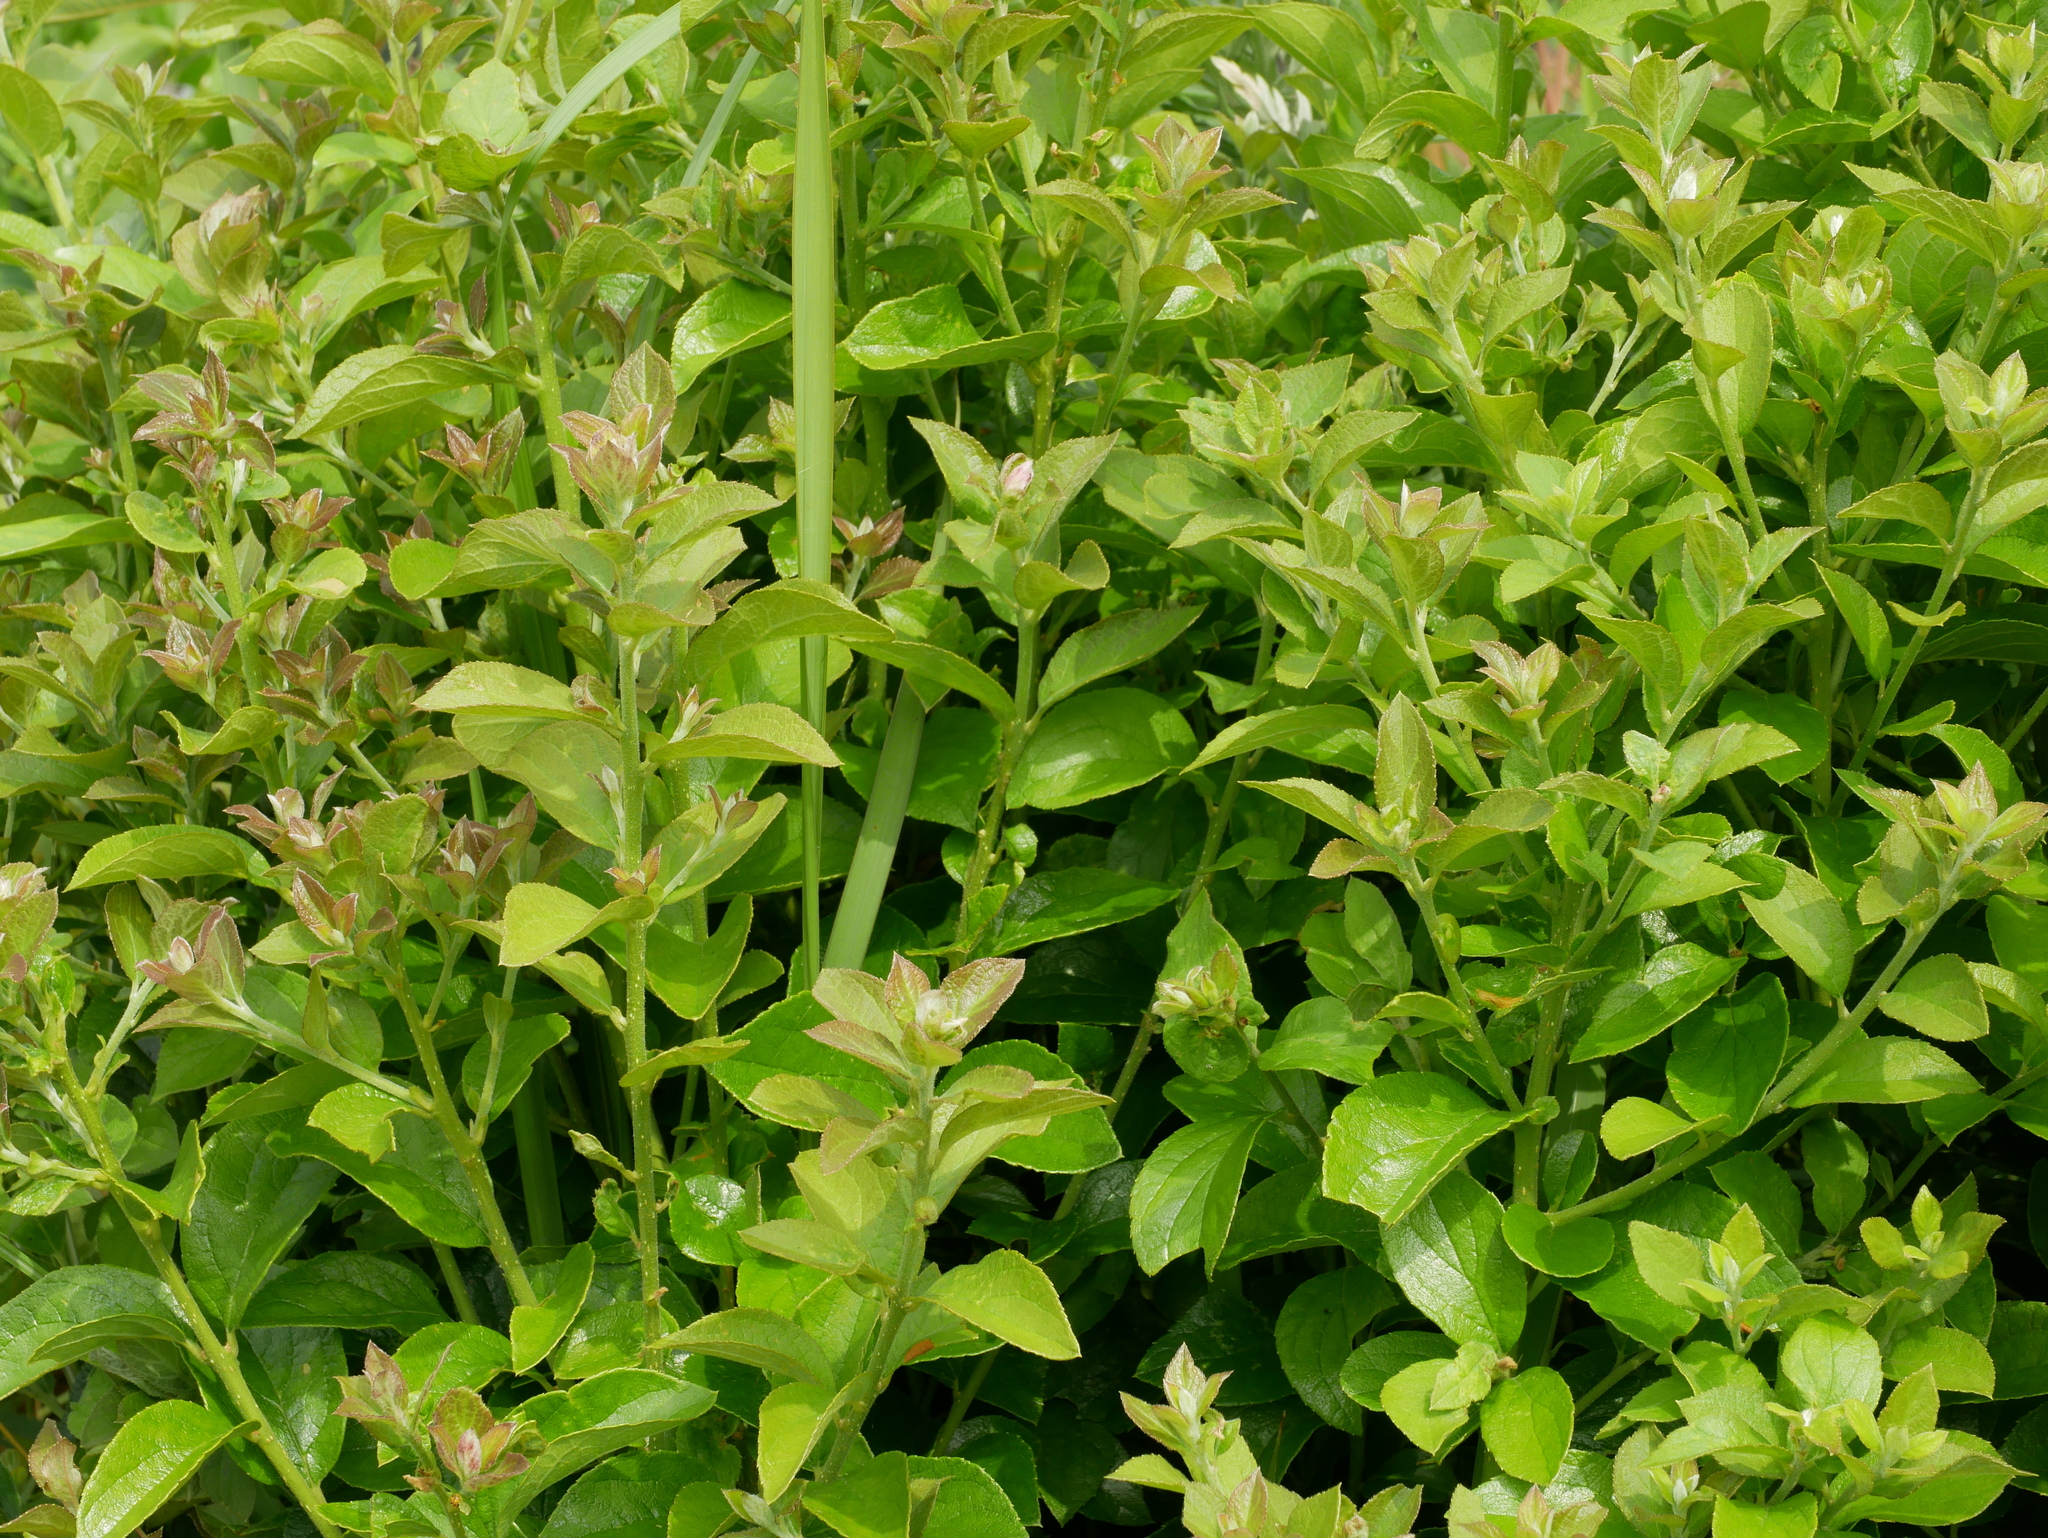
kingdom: Plantae
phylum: Tracheophyta
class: Magnoliopsida
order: Ericales
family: Symplocaceae
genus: Symplocos
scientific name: Symplocos paniculata
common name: Sapphire-berry
